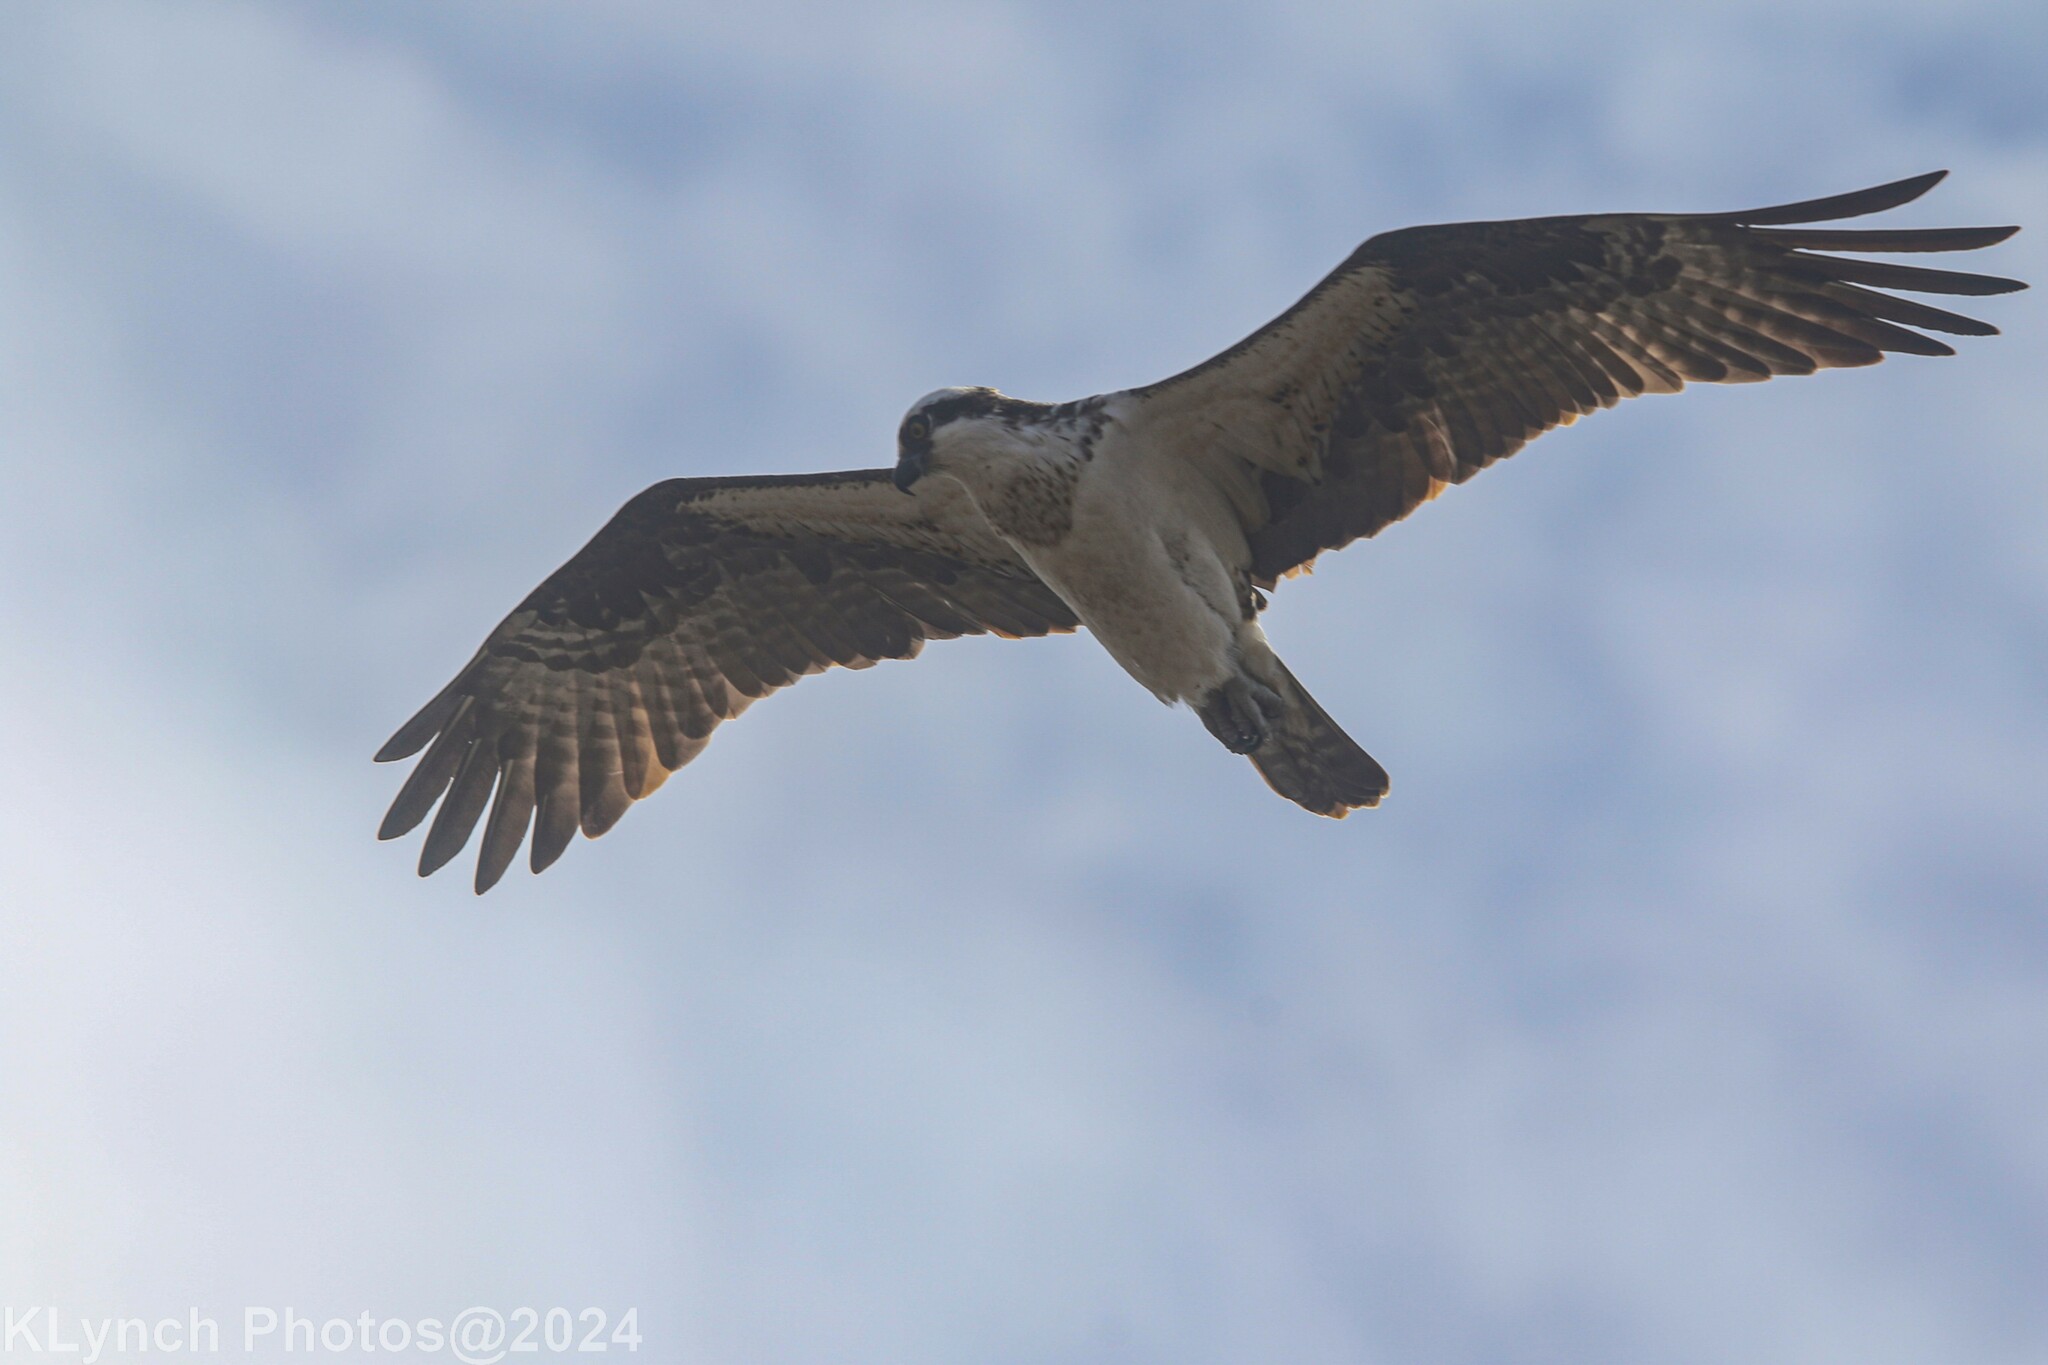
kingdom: Animalia
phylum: Chordata
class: Aves
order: Accipitriformes
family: Pandionidae
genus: Pandion
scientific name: Pandion haliaetus
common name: Osprey
